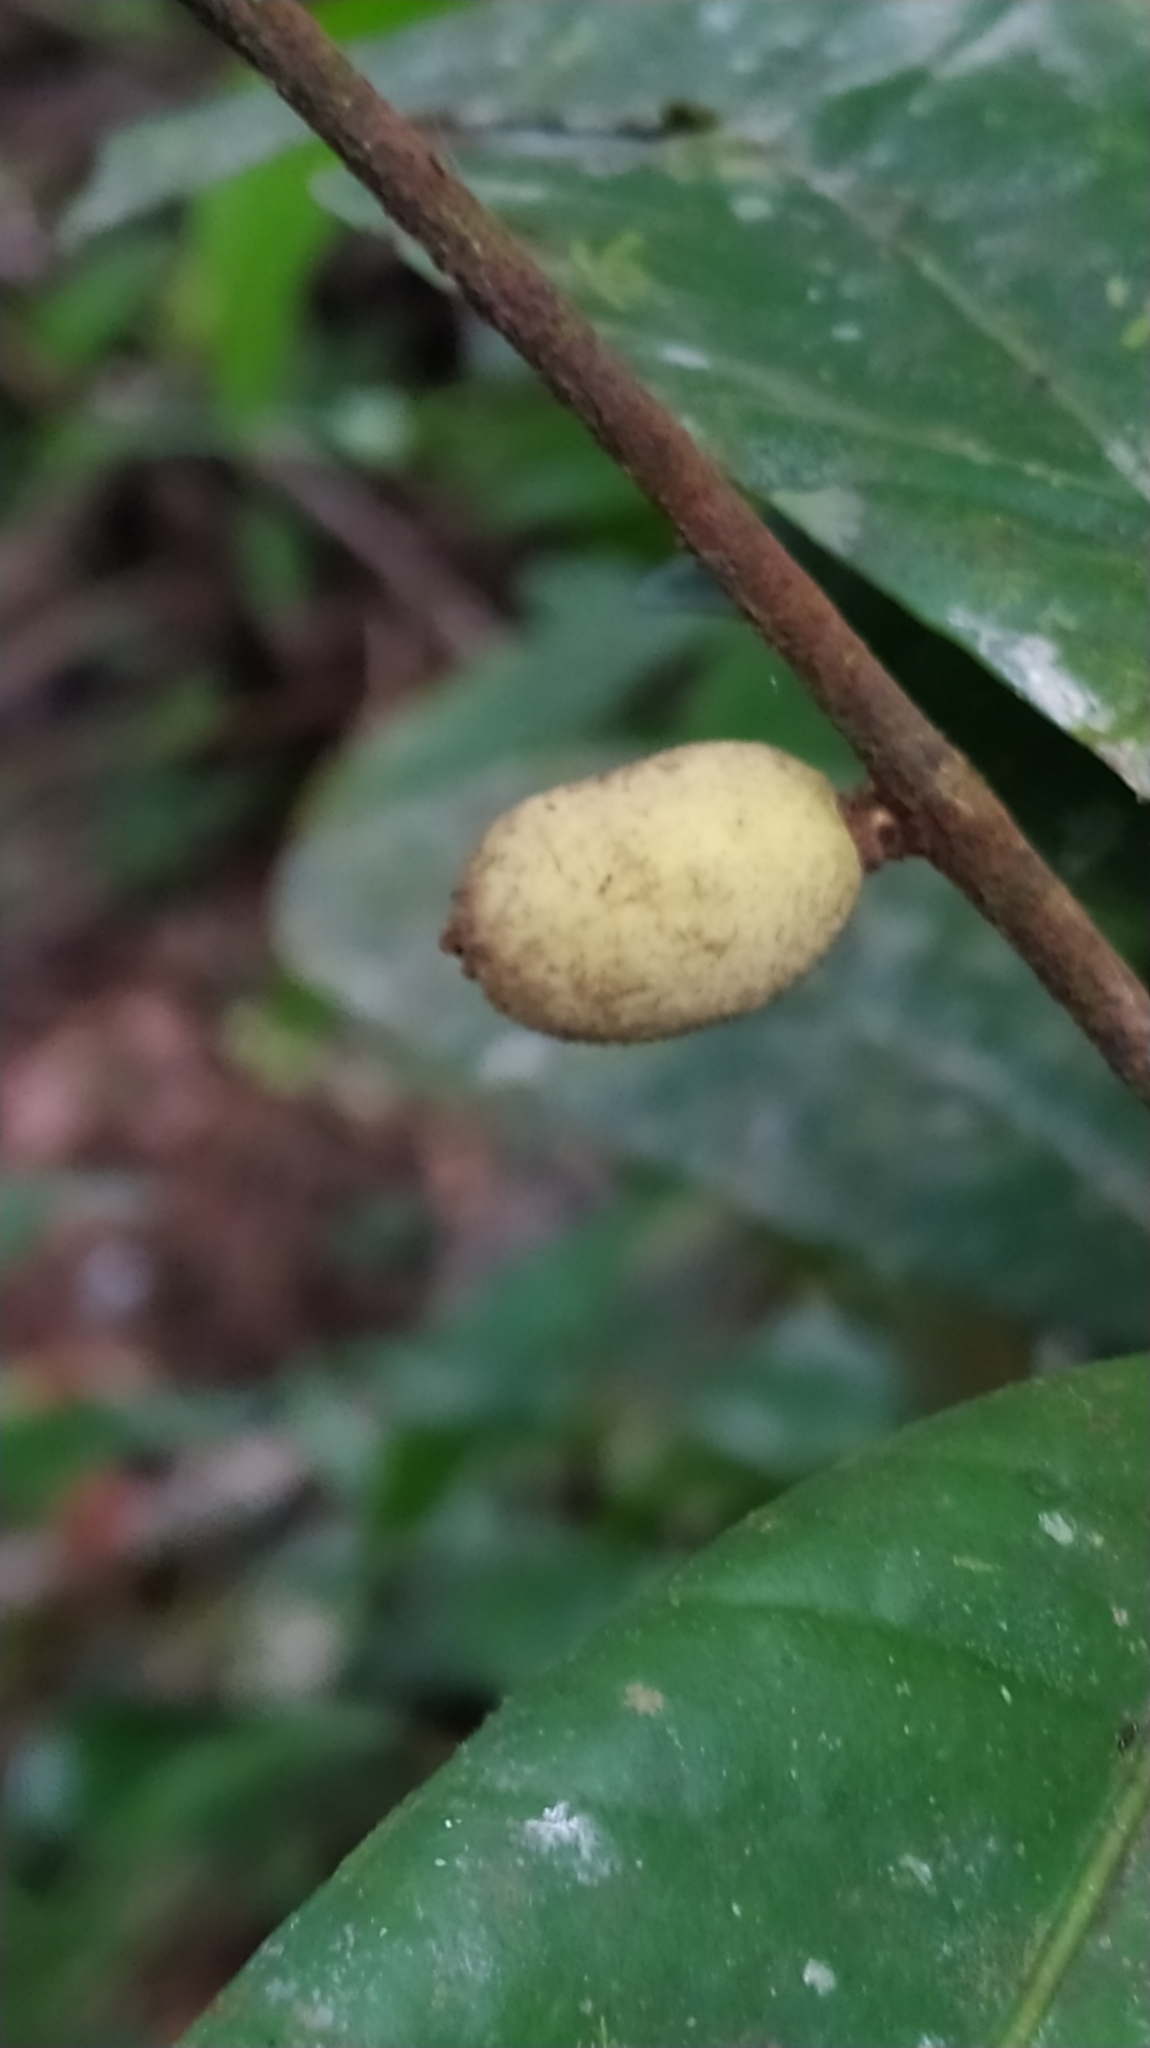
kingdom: Plantae
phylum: Tracheophyta
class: Magnoliopsida
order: Myrtales
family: Myrtaceae
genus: Calycorectes
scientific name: Calycorectes grandifolius
